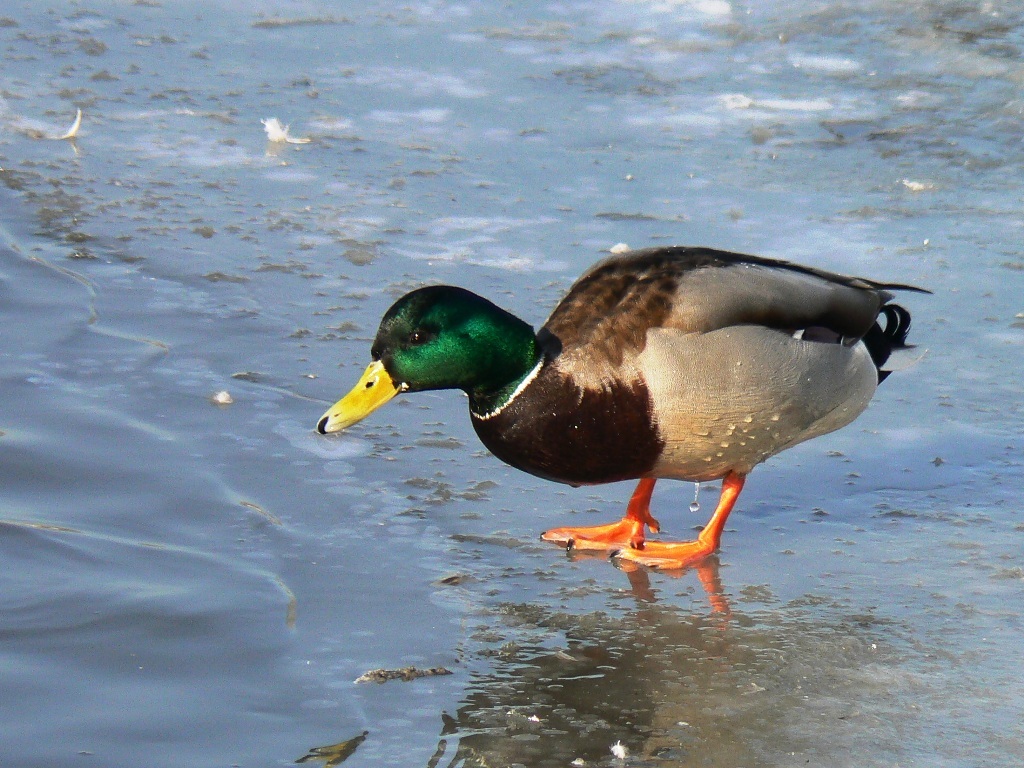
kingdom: Animalia
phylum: Chordata
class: Aves
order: Anseriformes
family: Anatidae
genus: Anas
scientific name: Anas platyrhynchos
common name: Mallard
